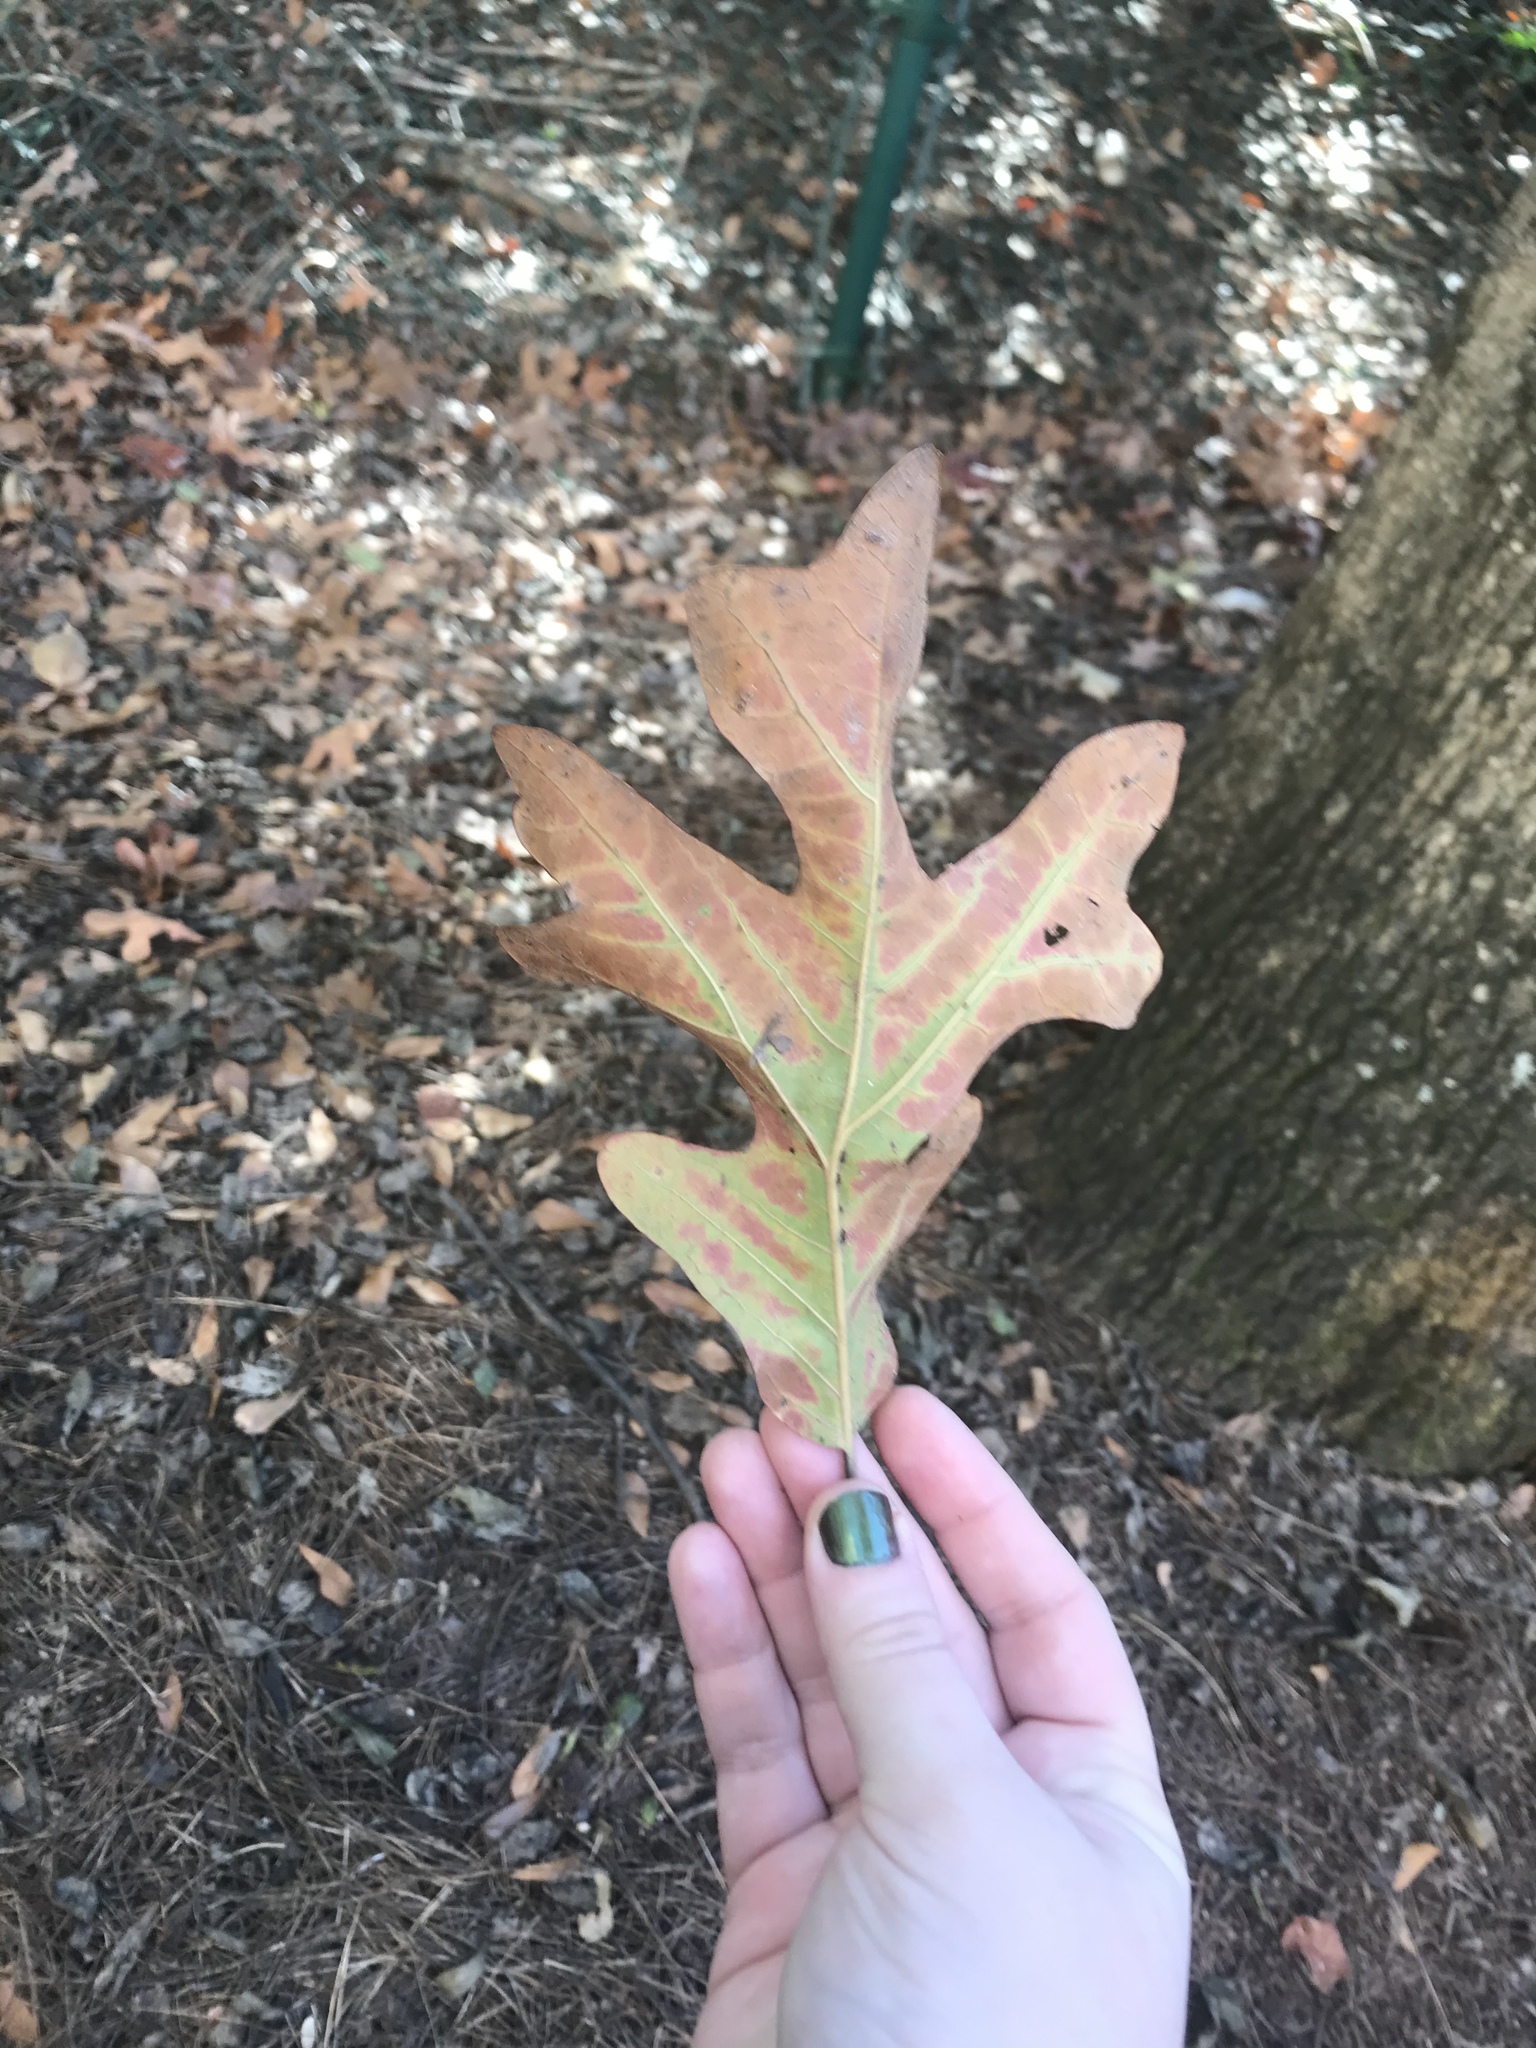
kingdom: Plantae
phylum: Tracheophyta
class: Magnoliopsida
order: Fagales
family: Fagaceae
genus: Quercus
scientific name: Quercus stellata
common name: Post oak
